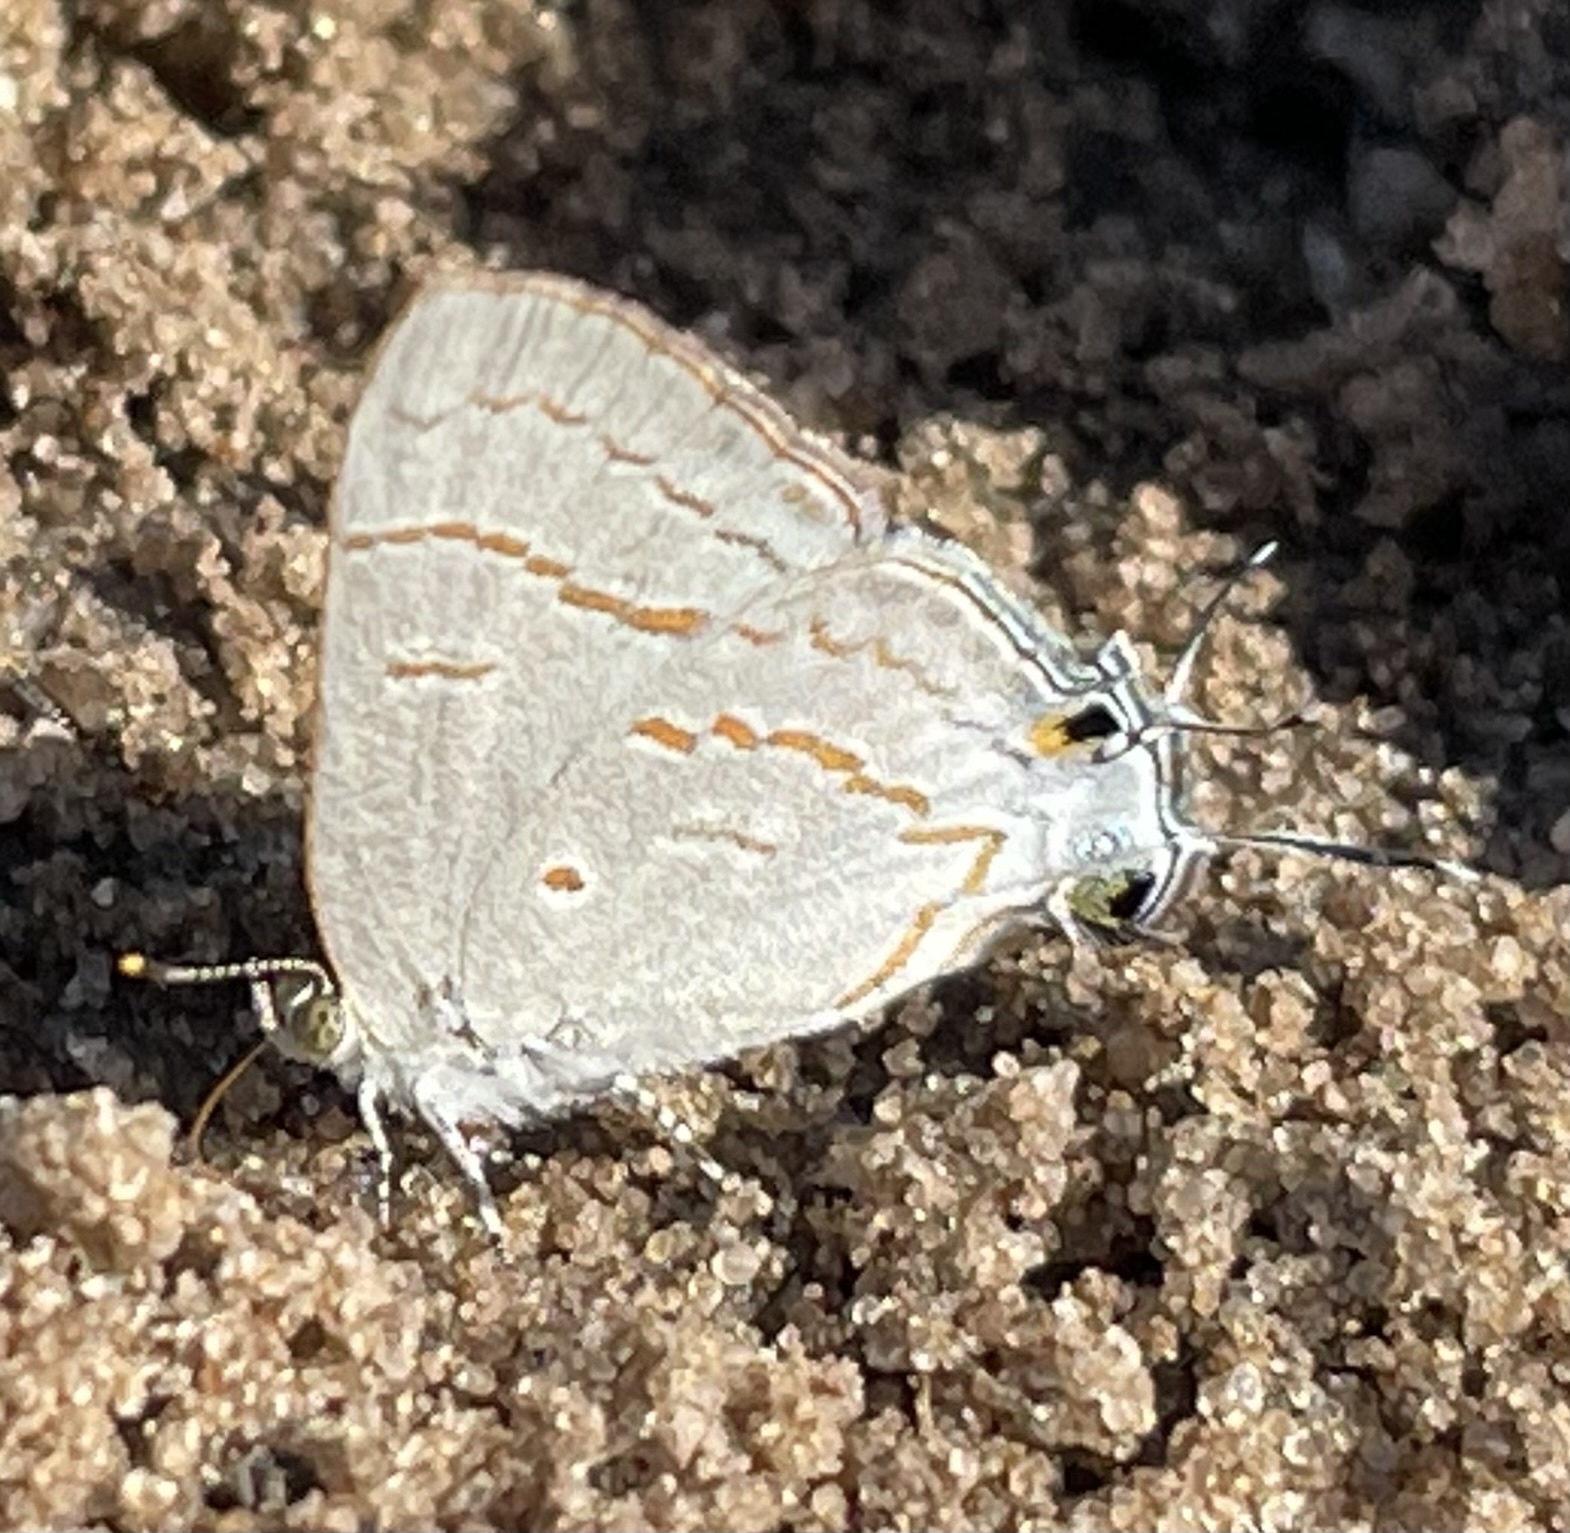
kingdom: Animalia
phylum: Arthropoda
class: Insecta
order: Lepidoptera
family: Lycaenidae
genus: Hypolycaena
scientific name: Hypolycaena philippus
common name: Common hairstreak
